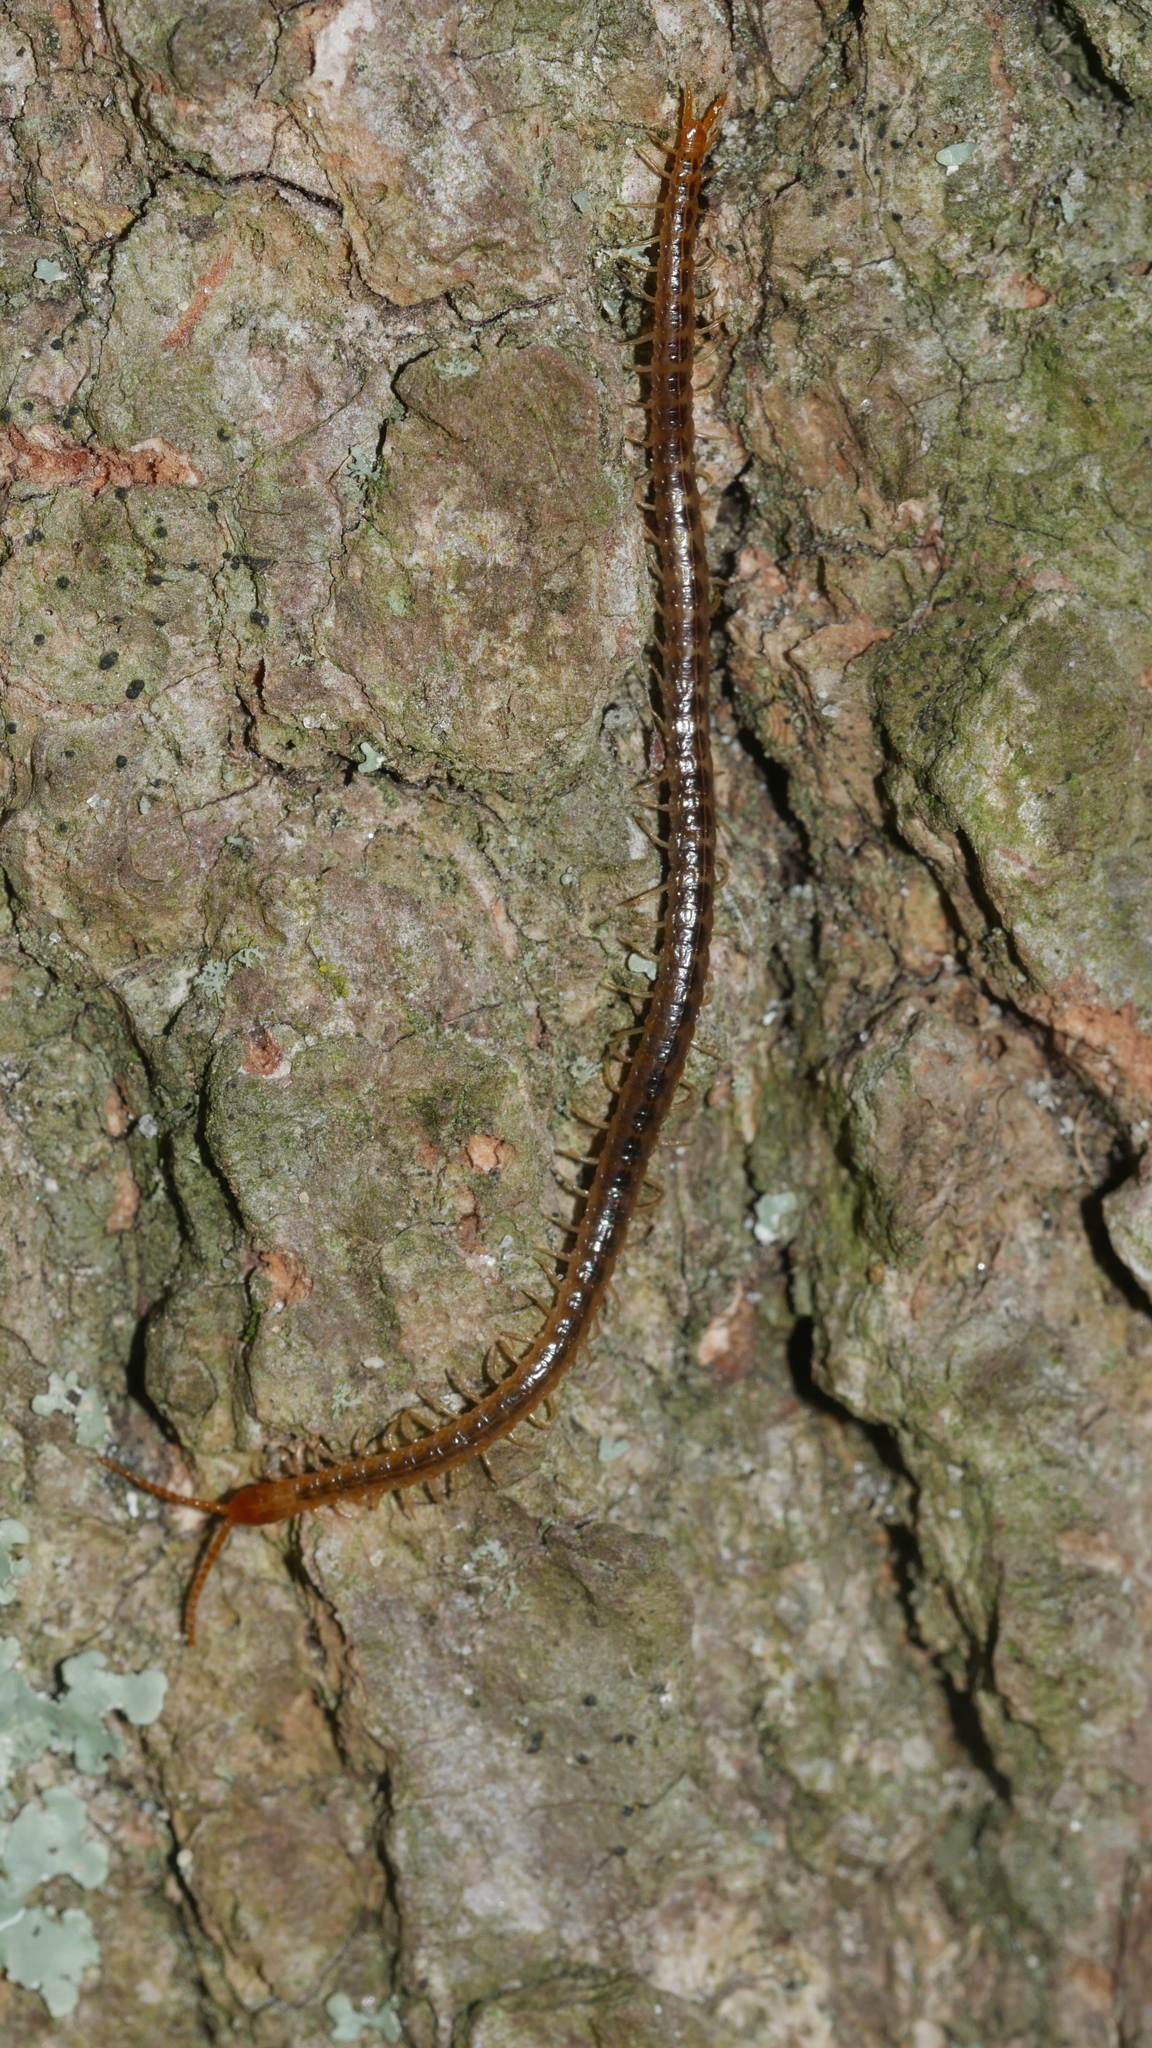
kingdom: Animalia
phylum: Arthropoda
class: Chilopoda
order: Geophilomorpha
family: Geophilidae
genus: Geophilus
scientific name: Geophilus vittatus
